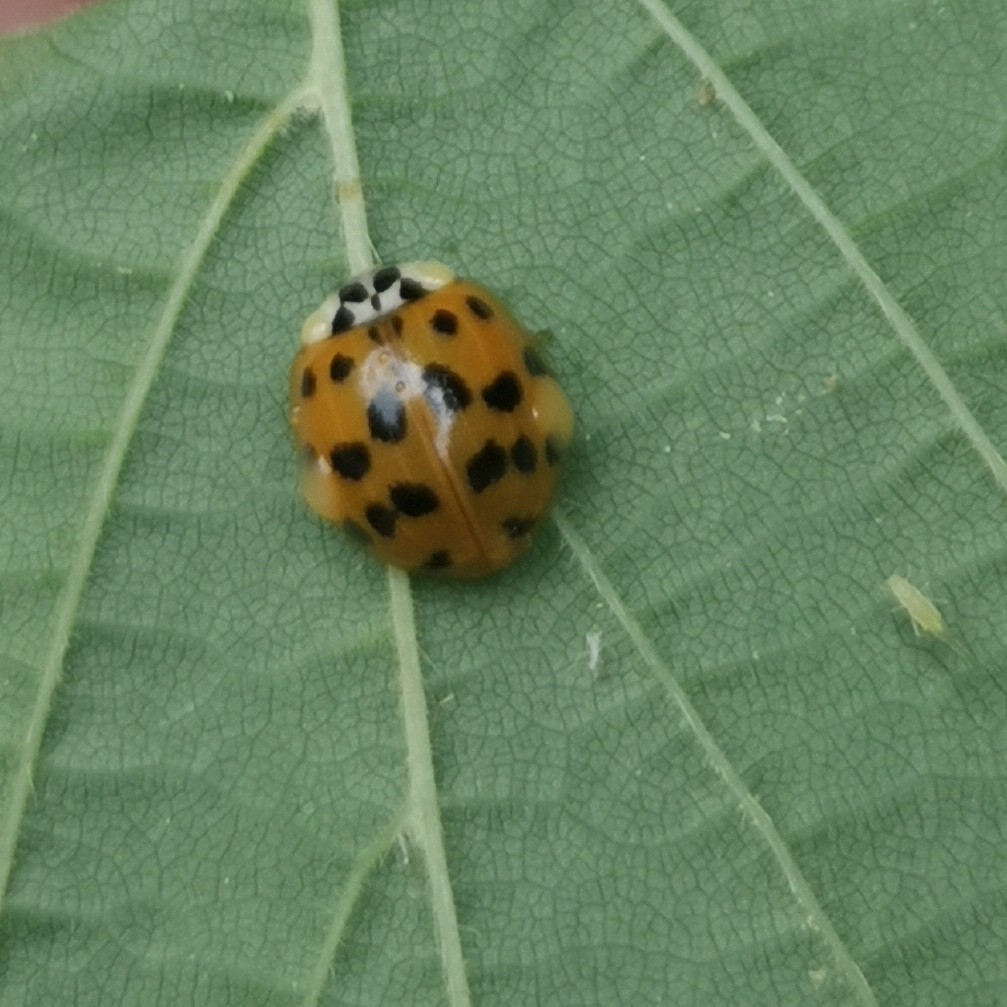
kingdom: Animalia
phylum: Arthropoda
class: Insecta
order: Coleoptera
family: Coccinellidae
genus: Harmonia
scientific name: Harmonia axyridis
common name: Harlequin ladybird
